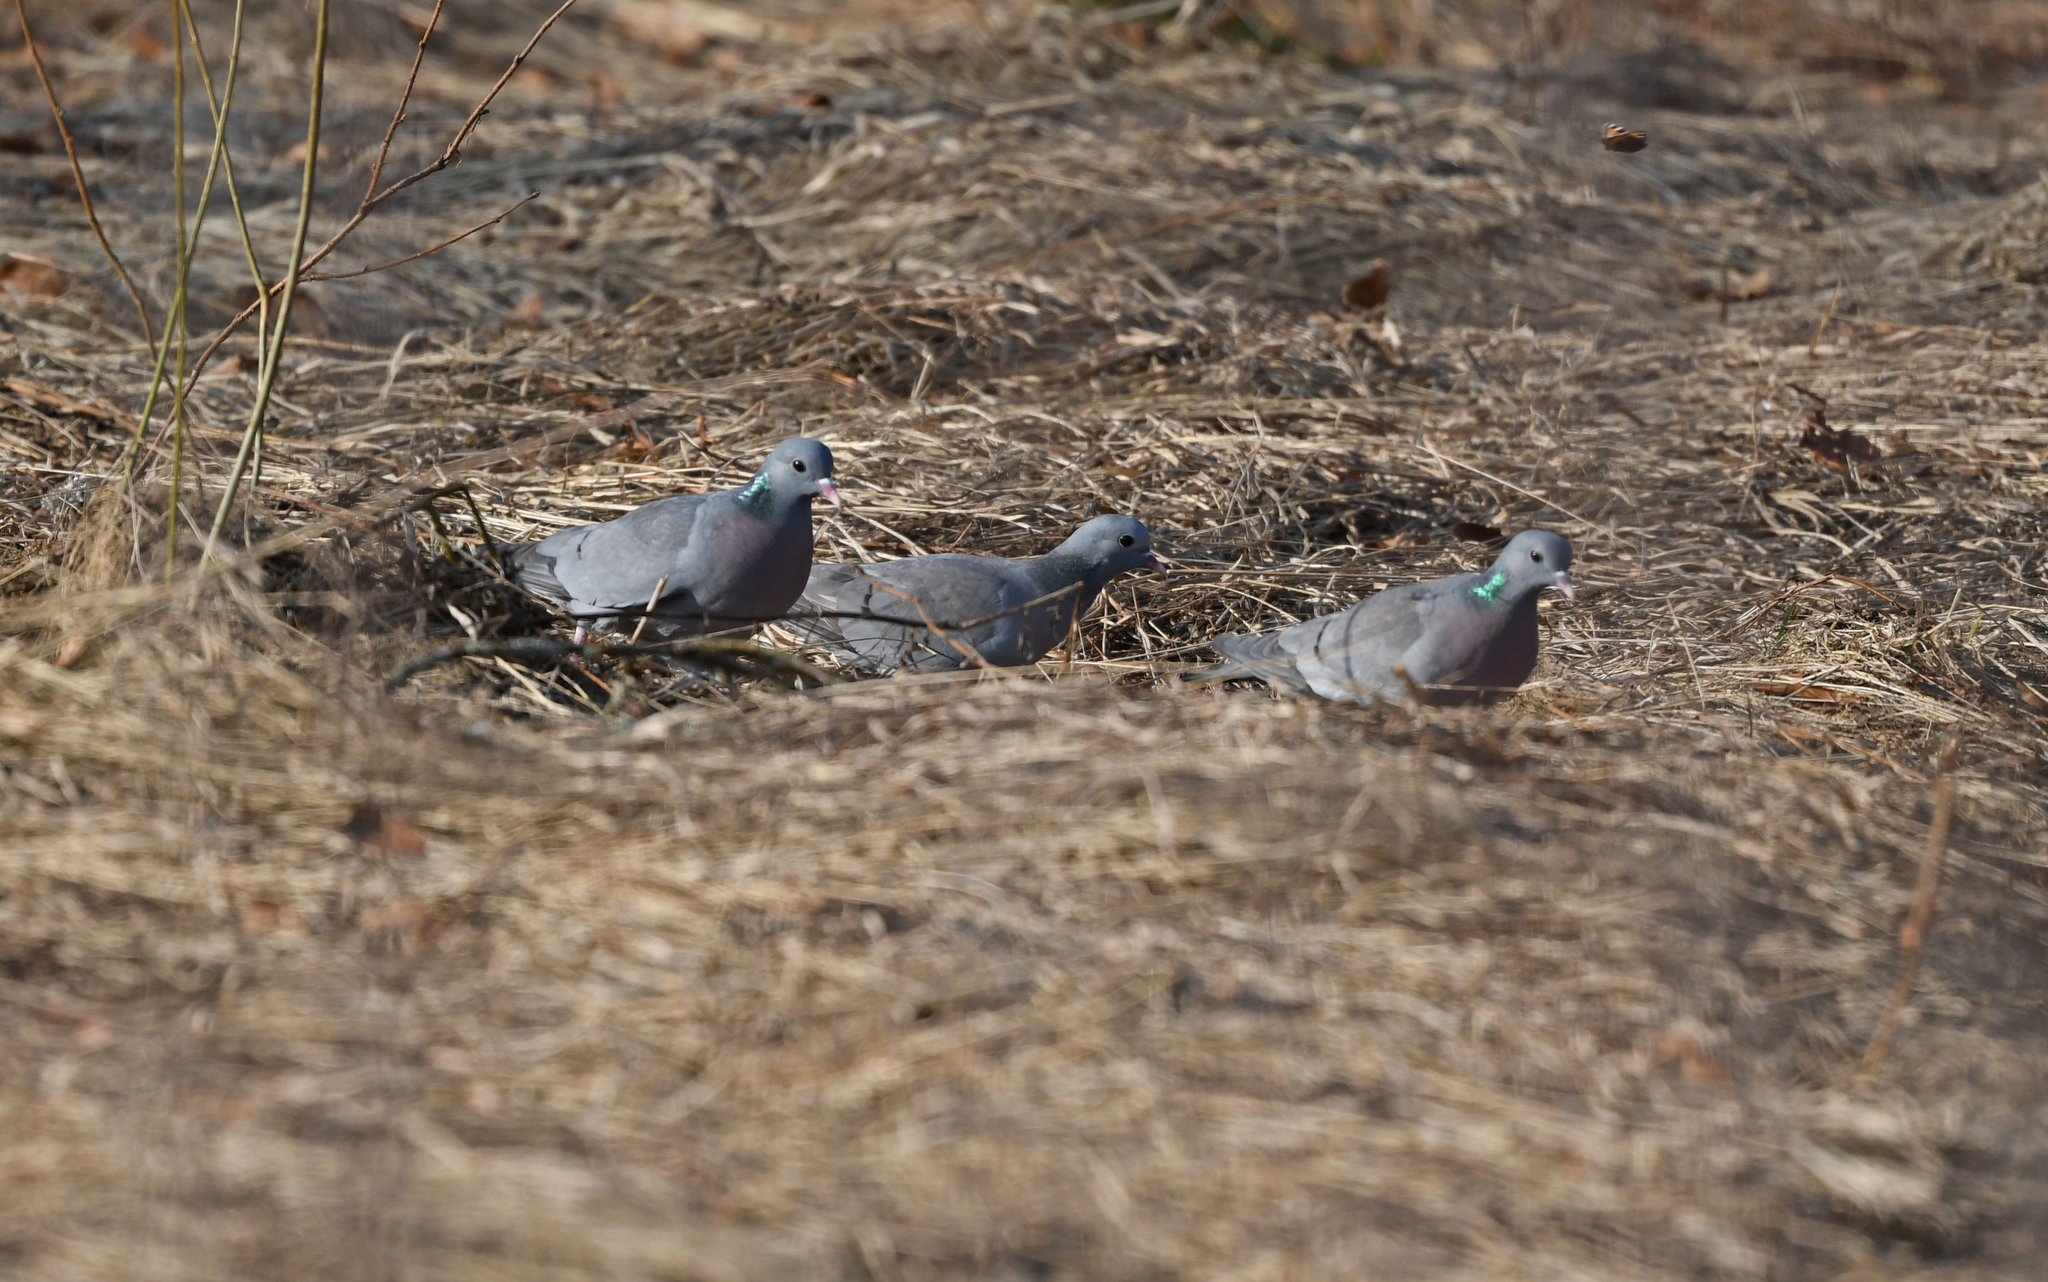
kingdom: Animalia
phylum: Chordata
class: Aves
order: Columbiformes
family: Columbidae
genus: Columba
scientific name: Columba oenas
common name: Stock dove
